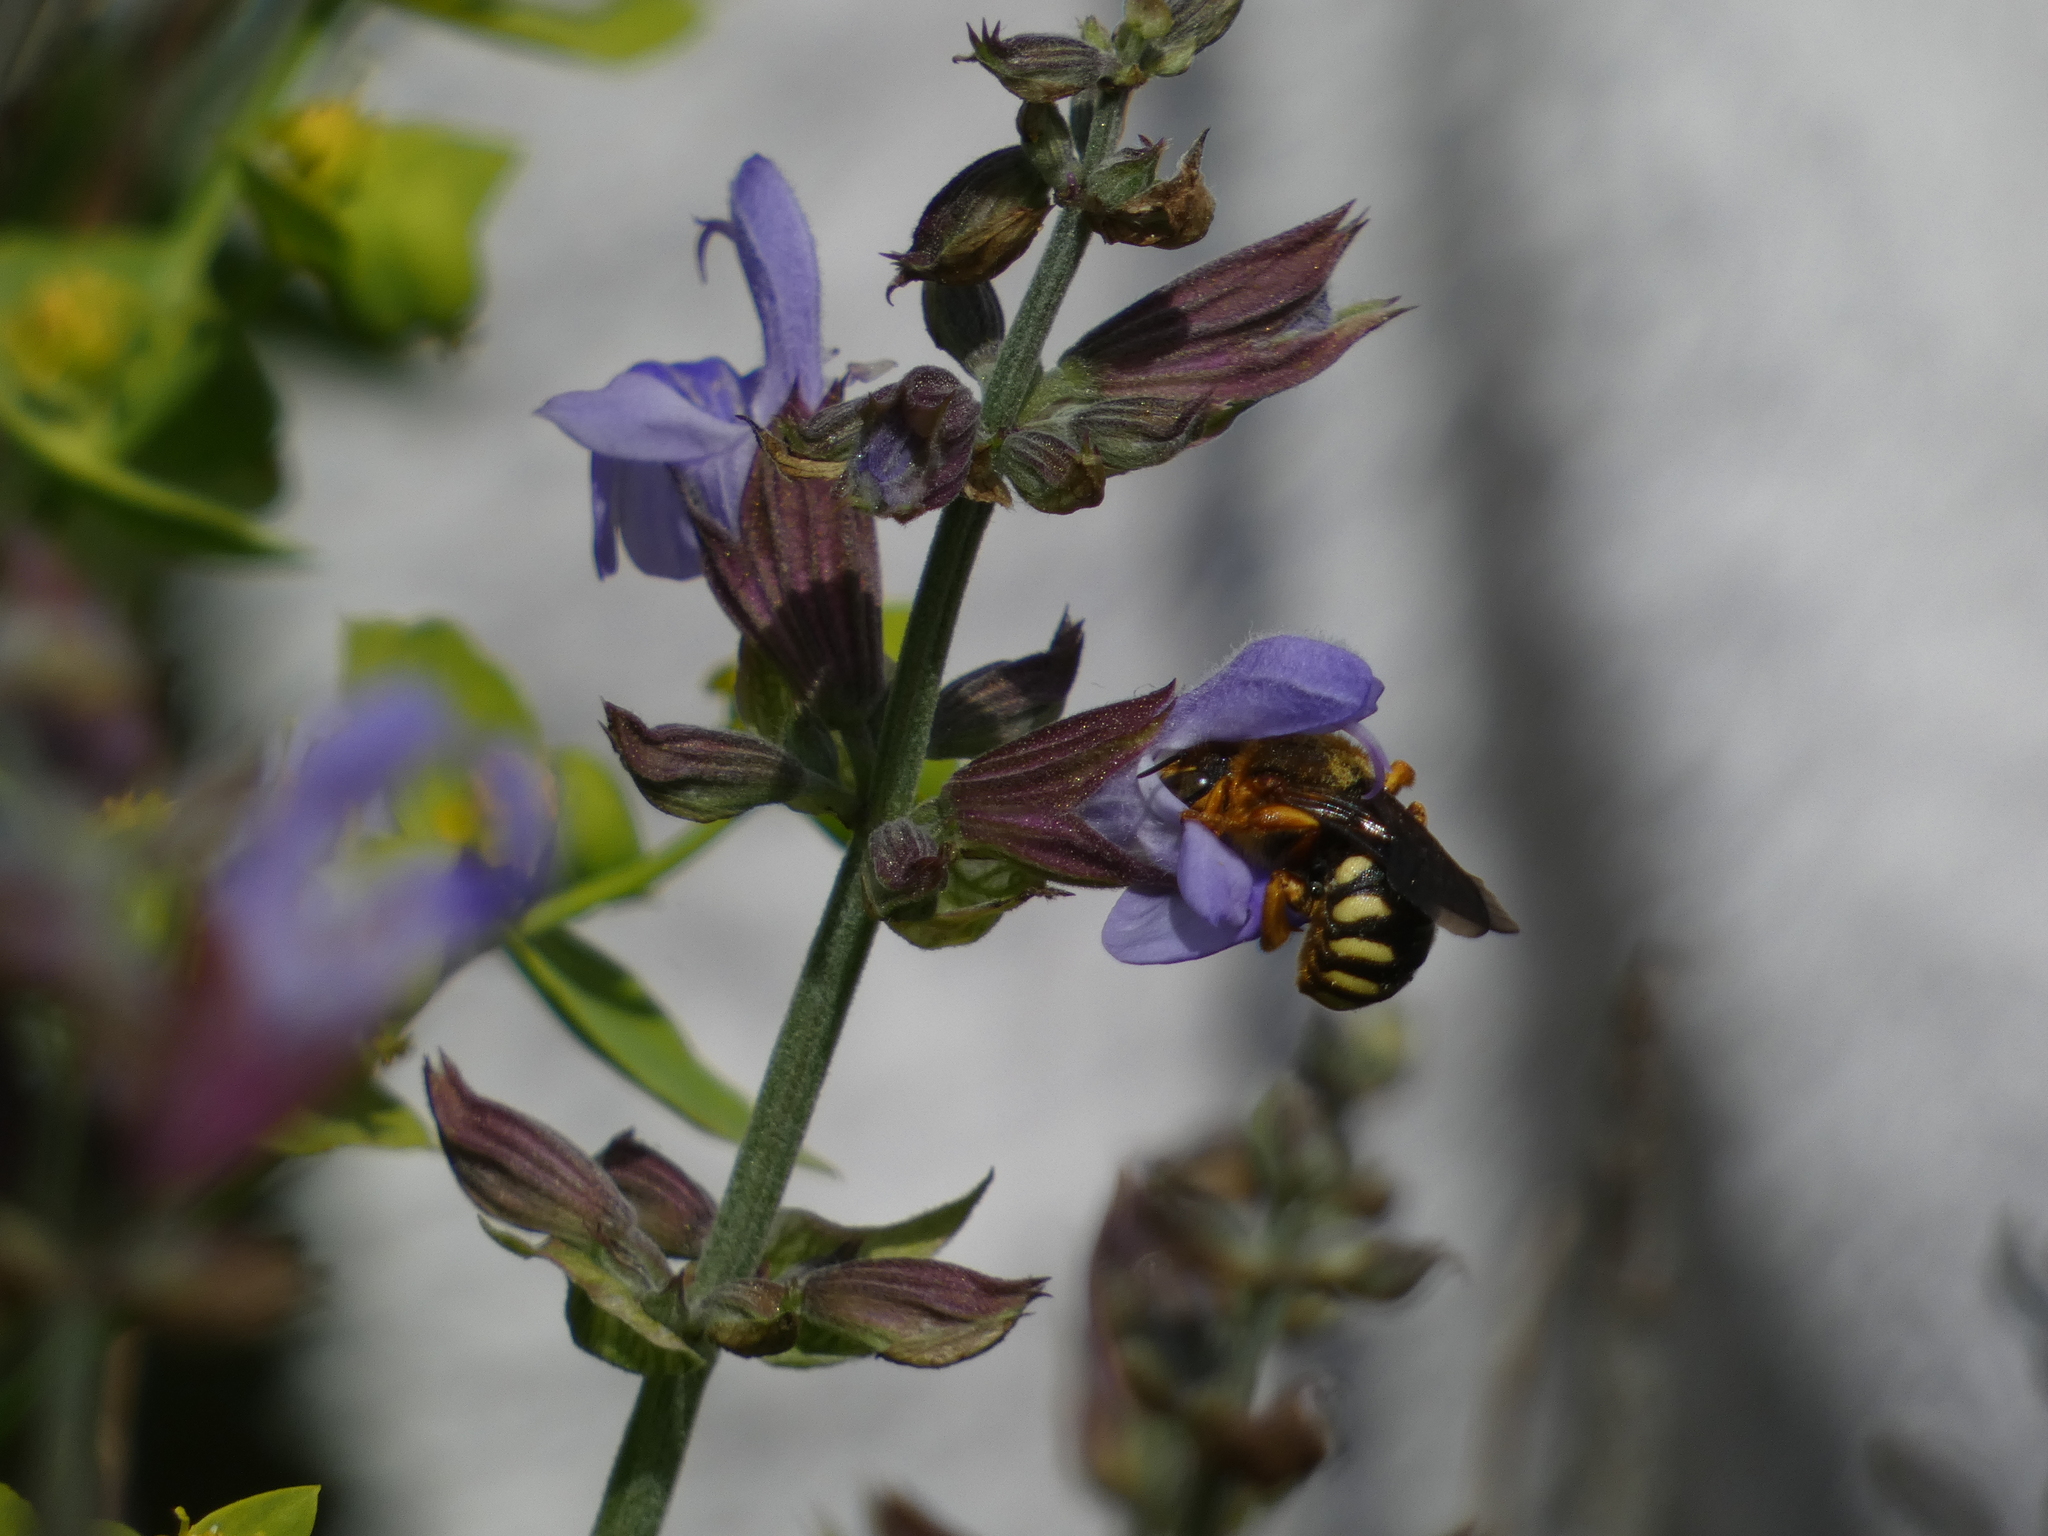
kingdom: Animalia
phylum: Arthropoda
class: Insecta
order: Hymenoptera
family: Megachilidae
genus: Rhodanthidium
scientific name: Rhodanthidium septemdentatum
